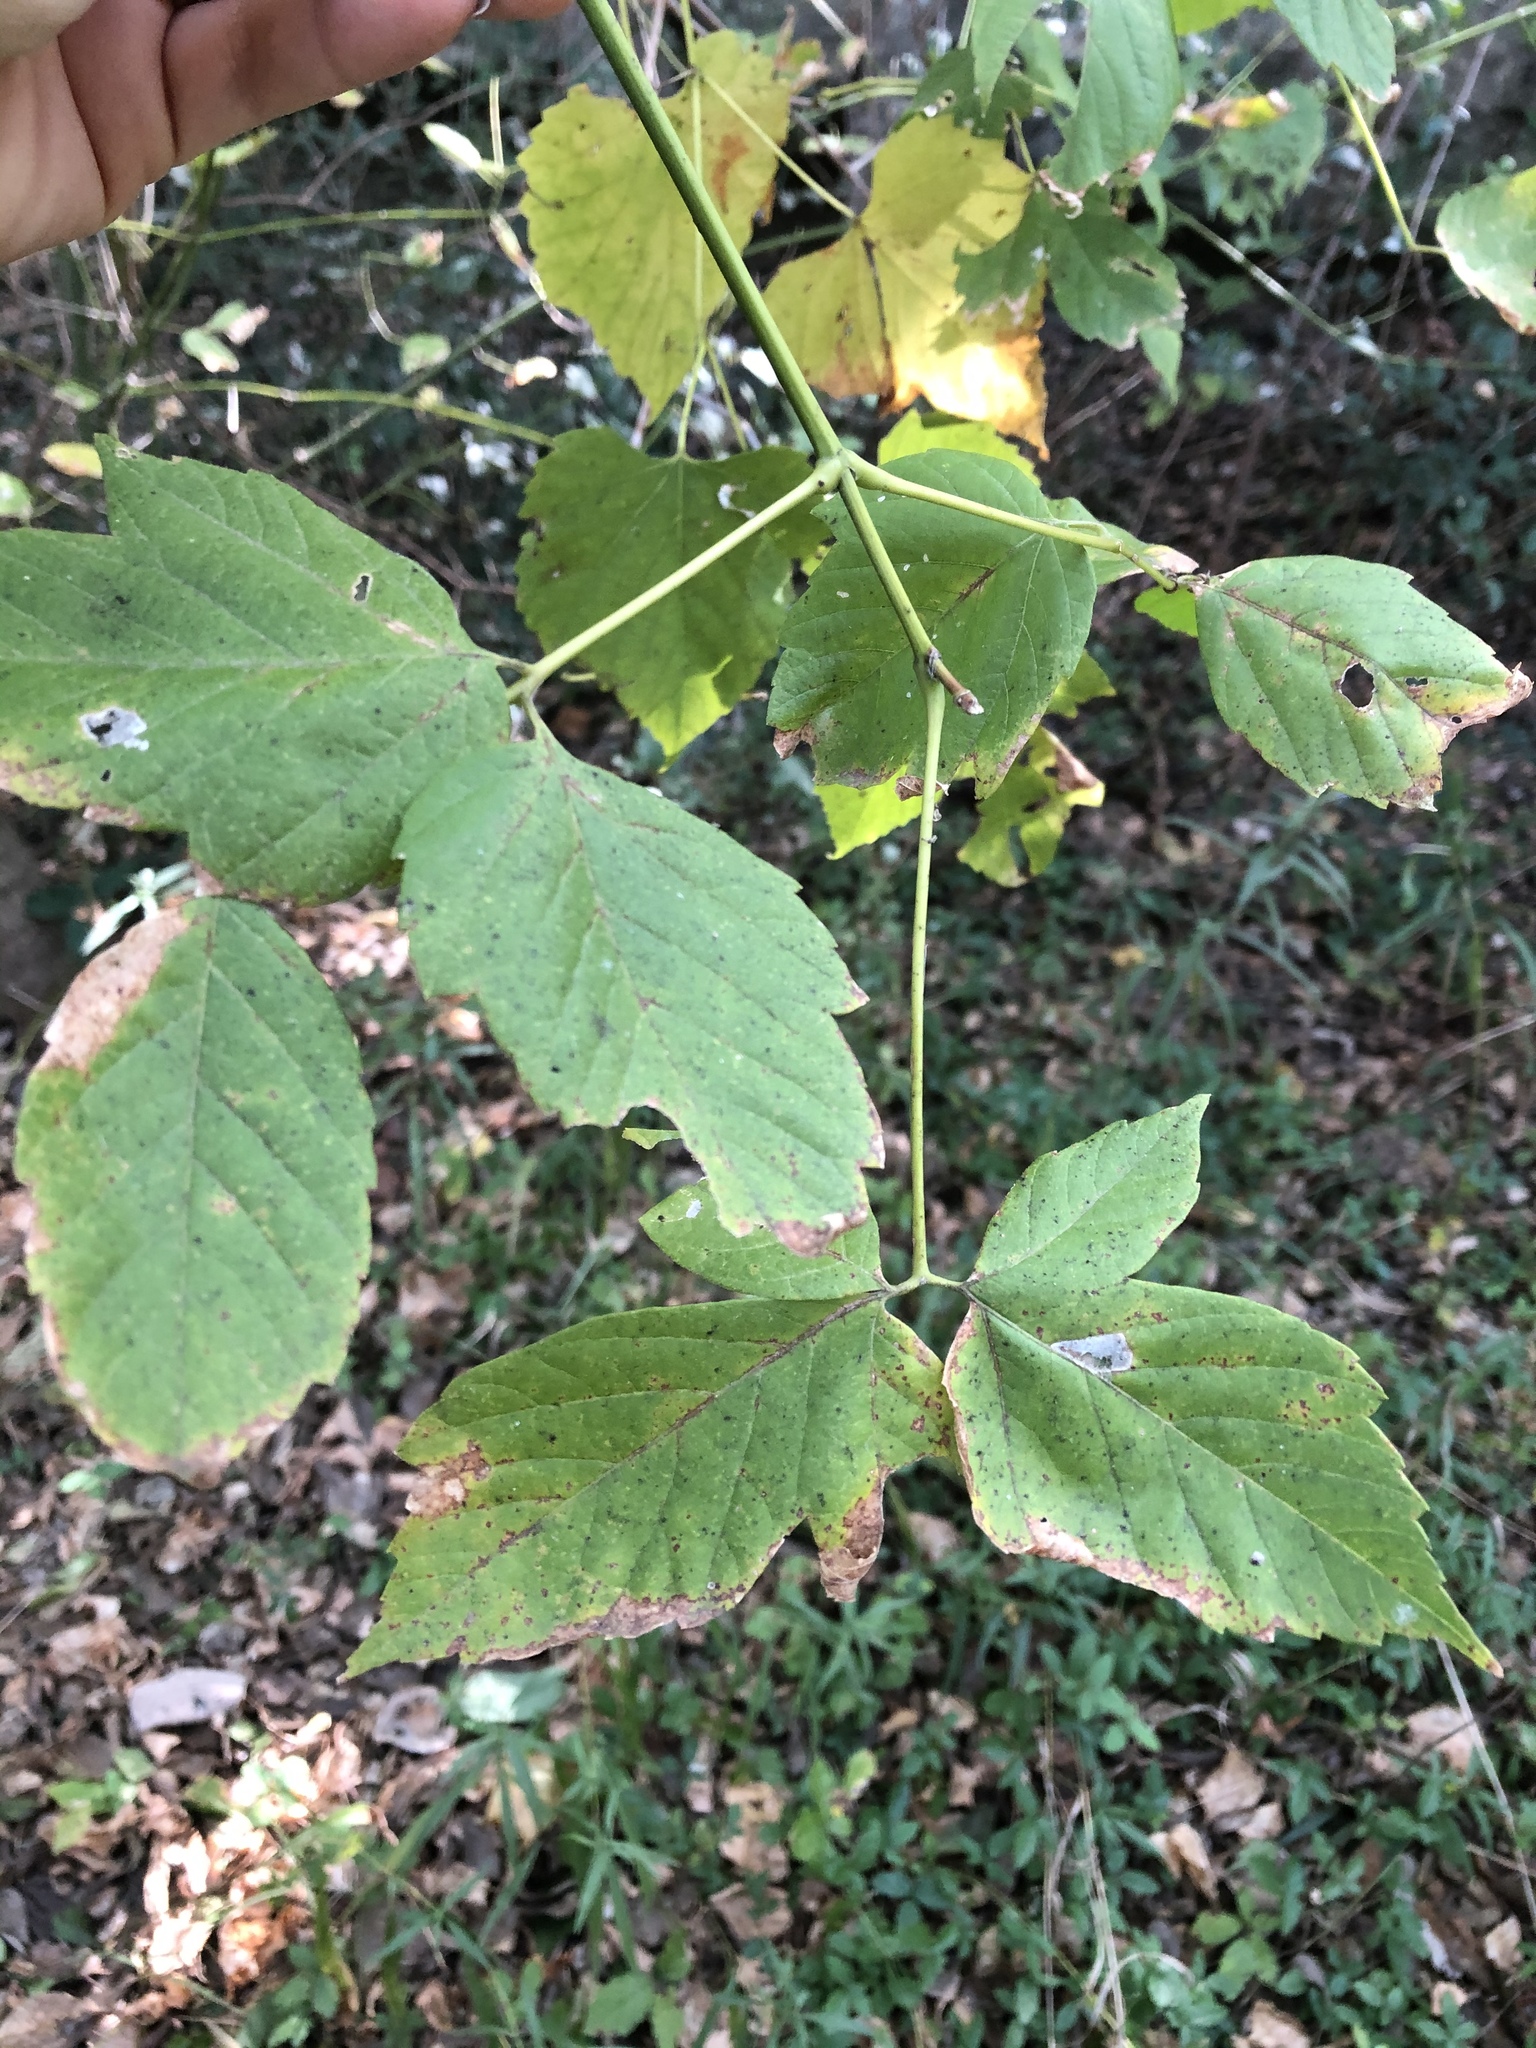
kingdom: Plantae
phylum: Tracheophyta
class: Magnoliopsida
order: Sapindales
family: Sapindaceae
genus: Acer
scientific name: Acer negundo
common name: Ashleaf maple
